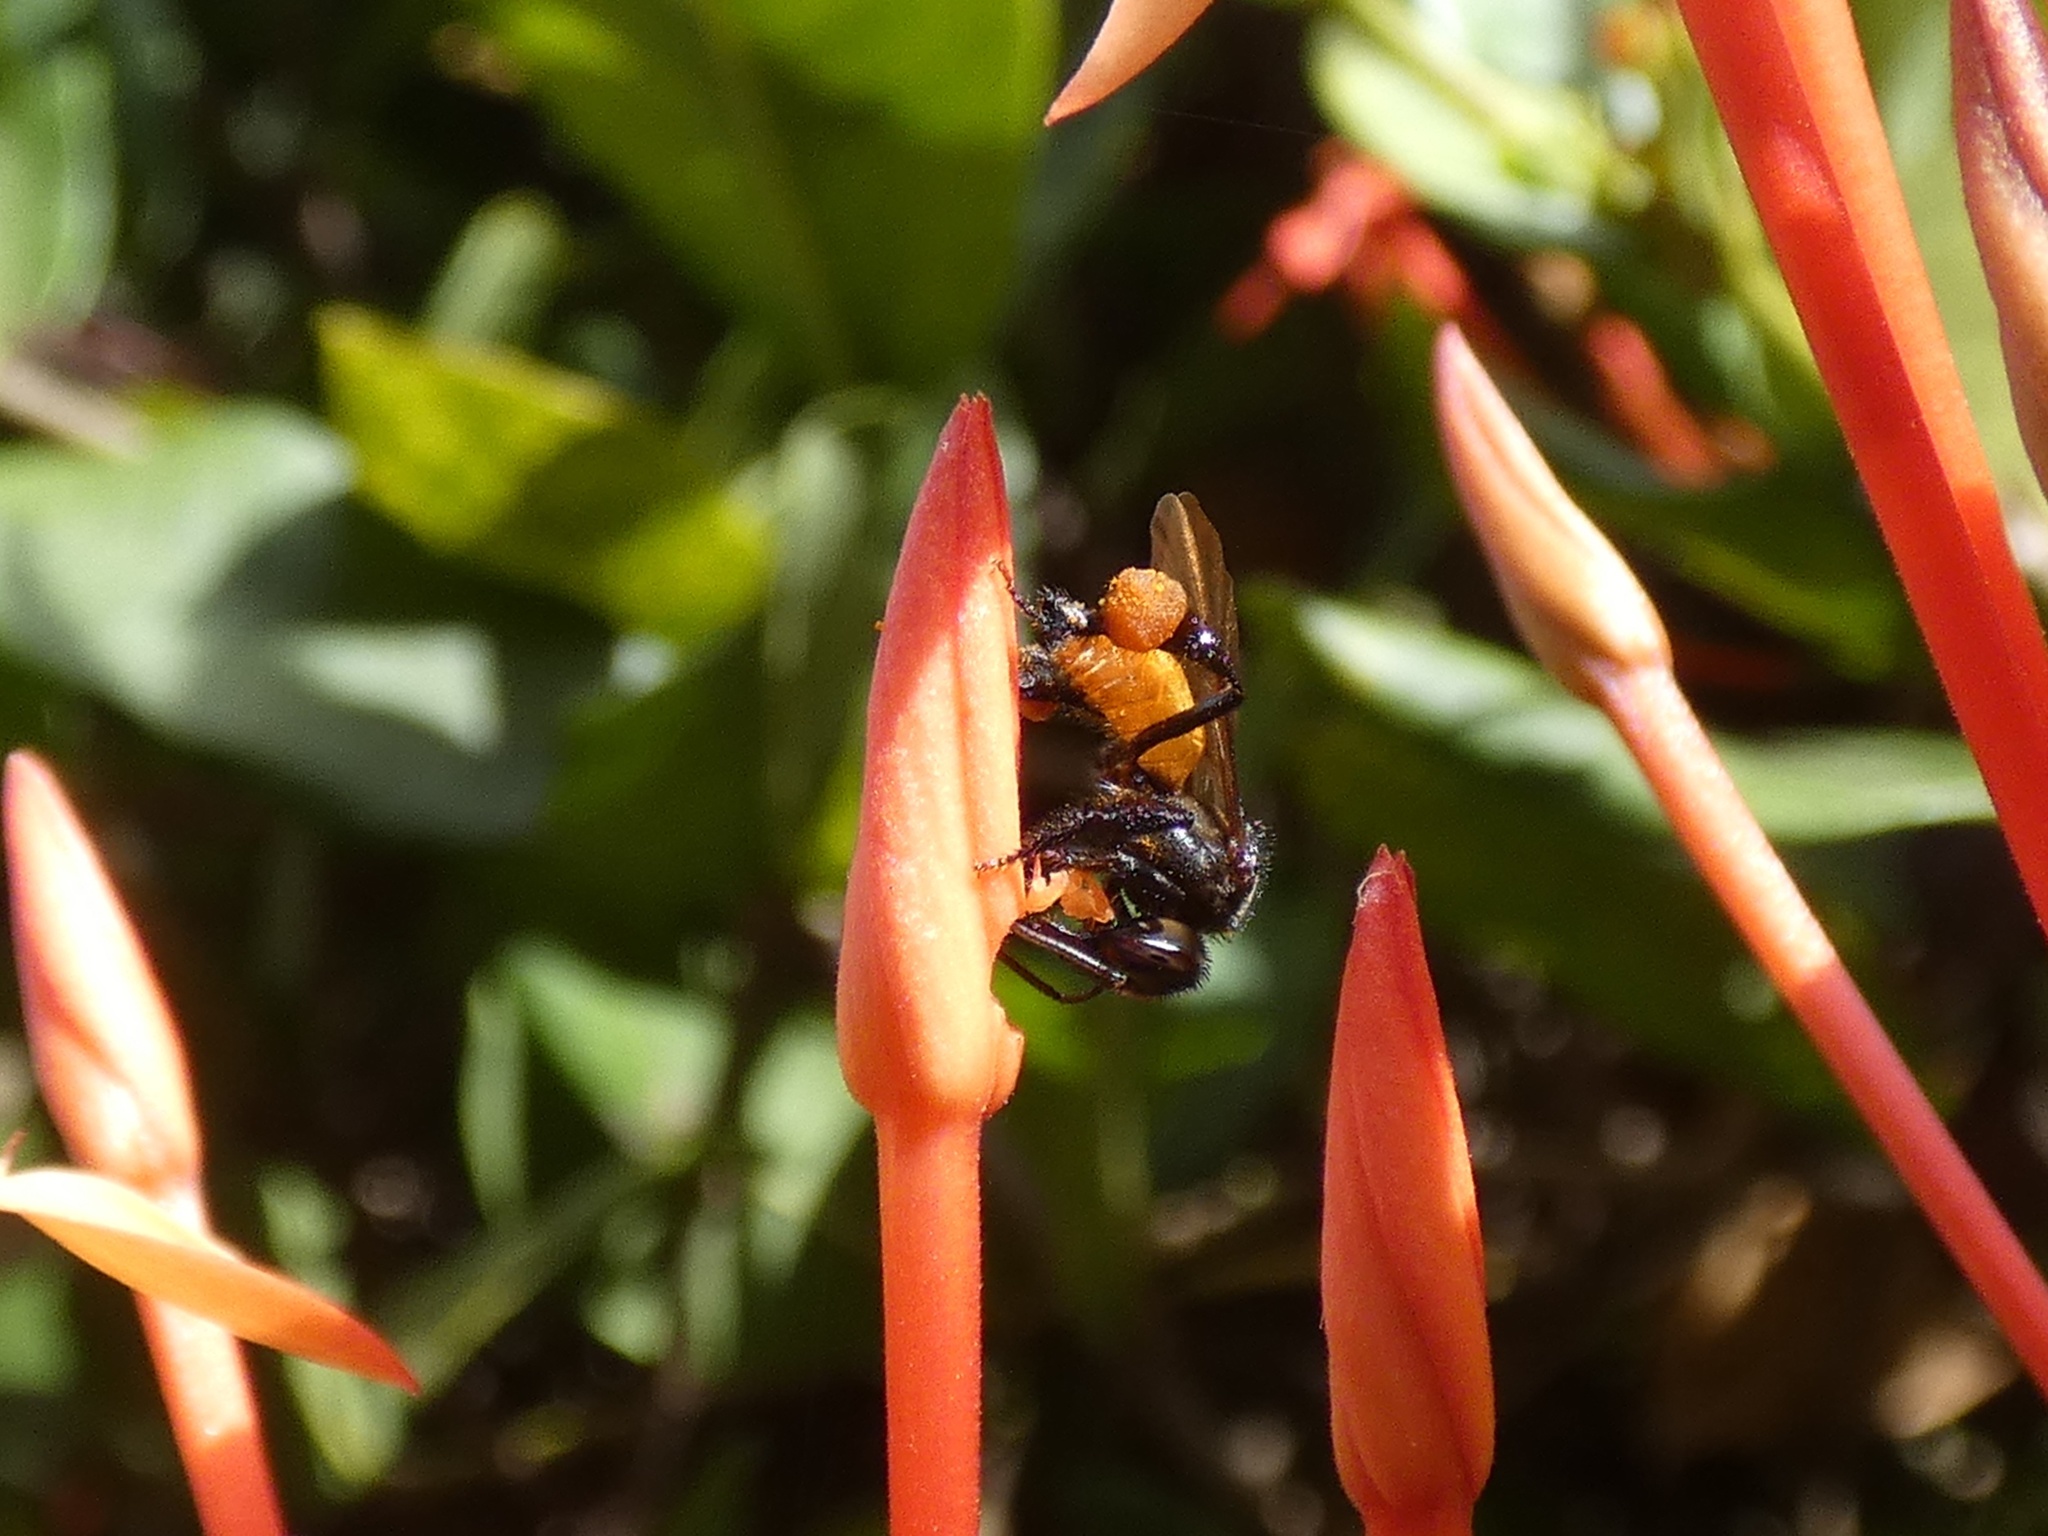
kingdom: Animalia
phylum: Arthropoda
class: Insecta
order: Hymenoptera
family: Apidae
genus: Trigona
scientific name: Trigona fulviventris
